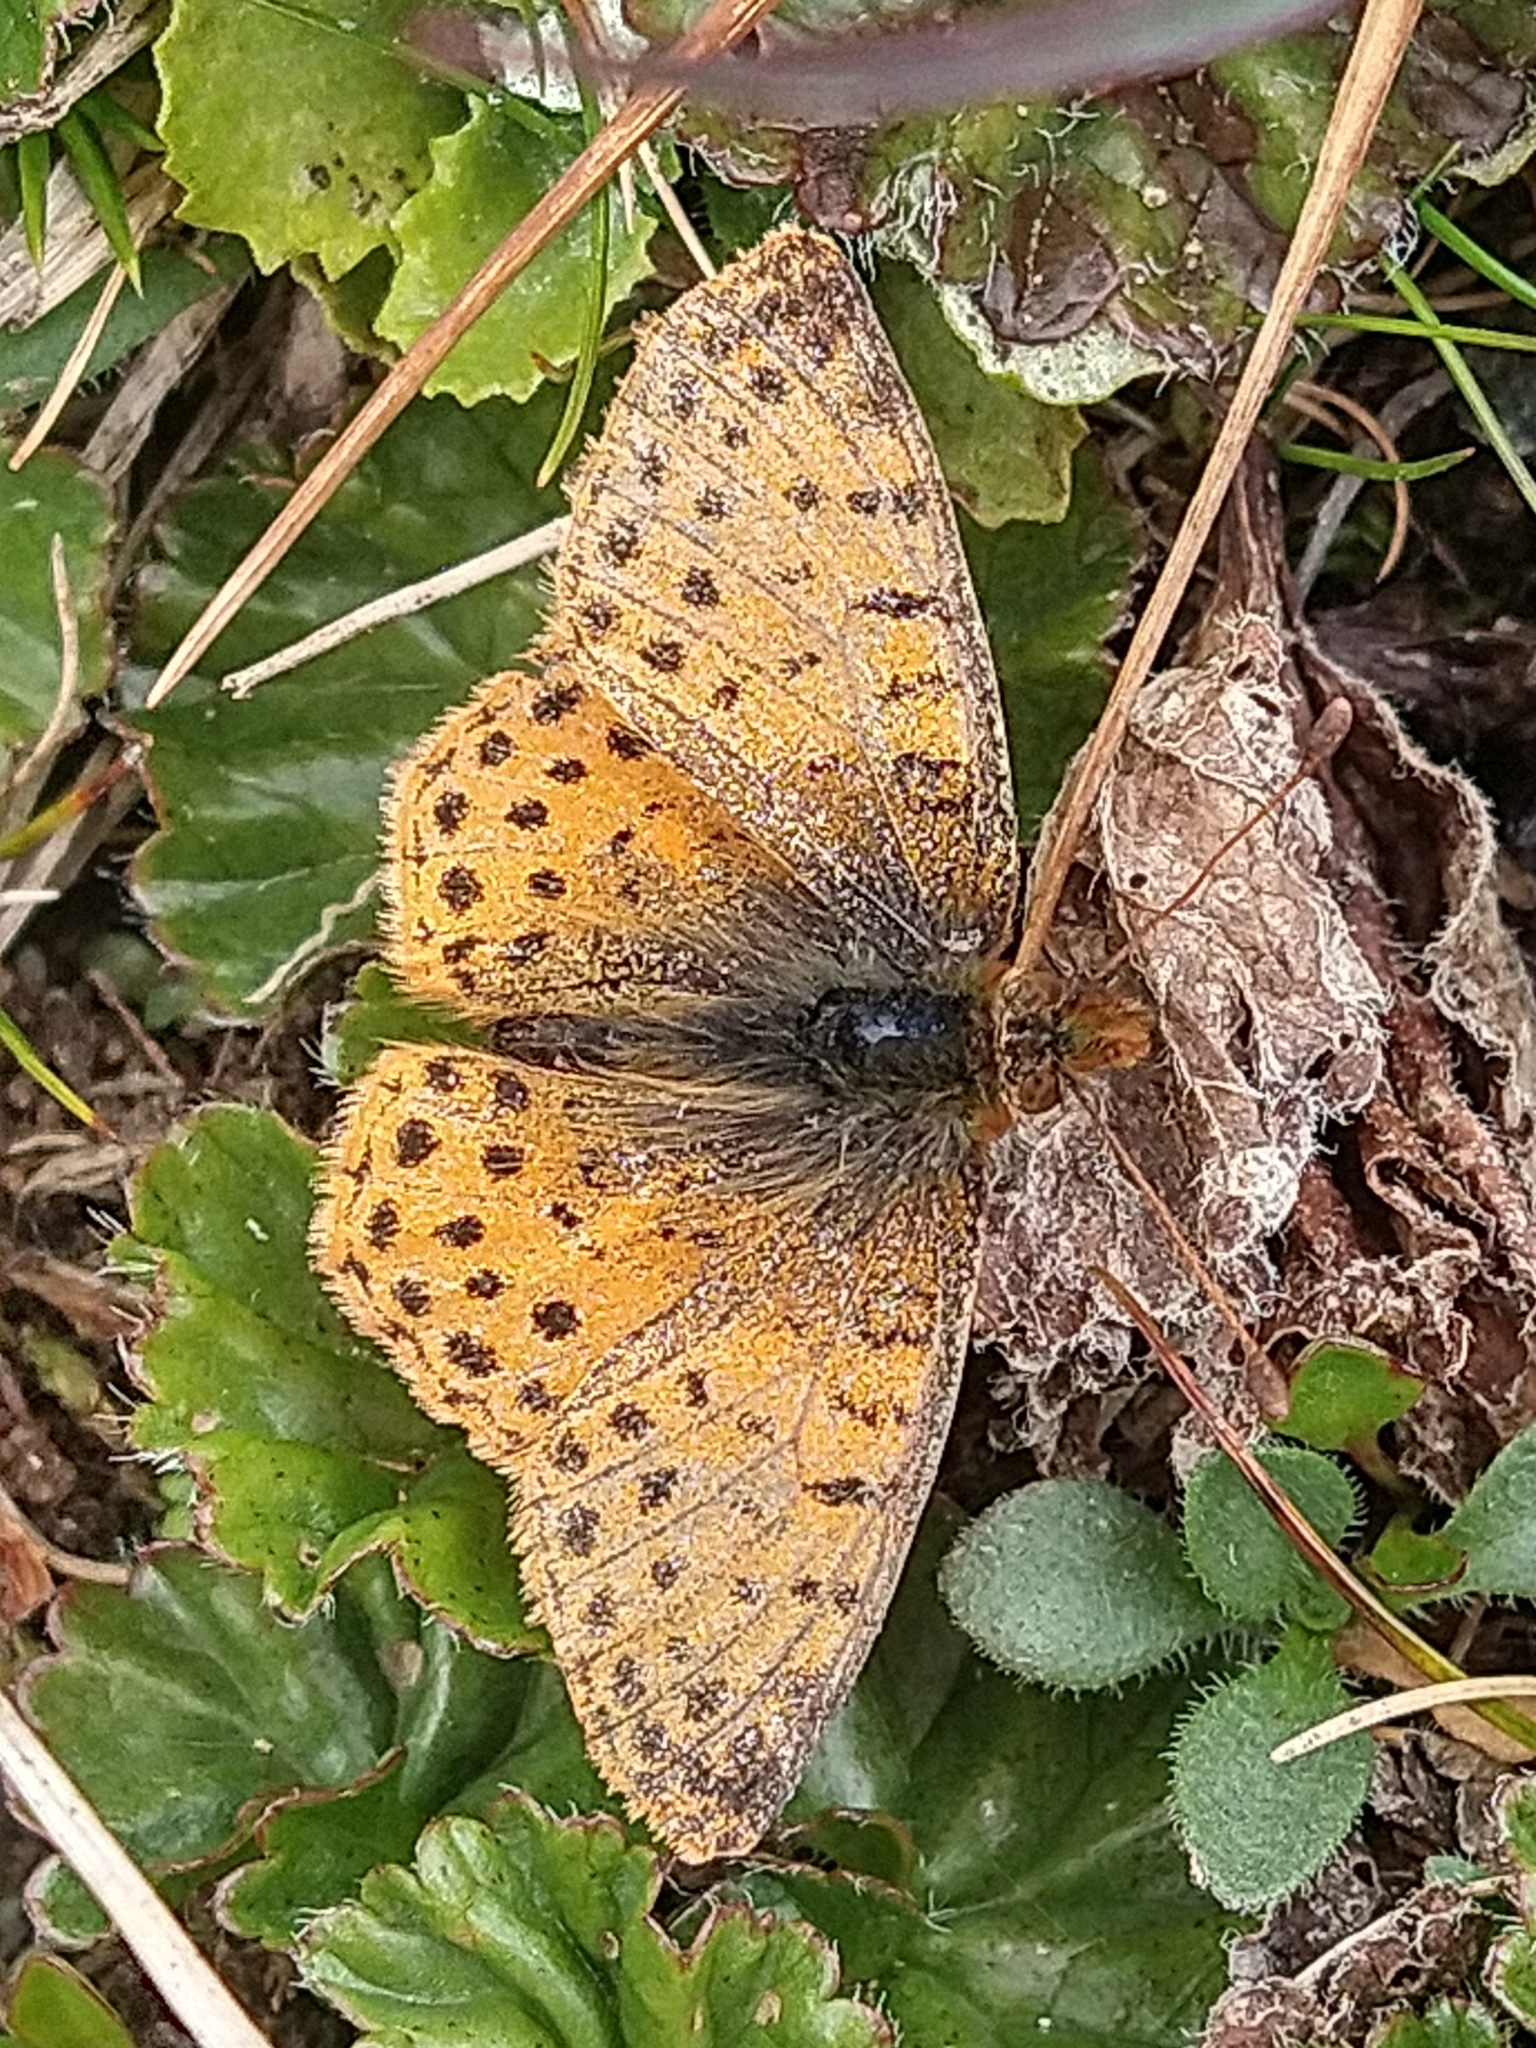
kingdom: Animalia
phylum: Arthropoda
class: Insecta
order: Lepidoptera
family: Nymphalidae
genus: Issoria
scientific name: Issoria Yramea cytheris
